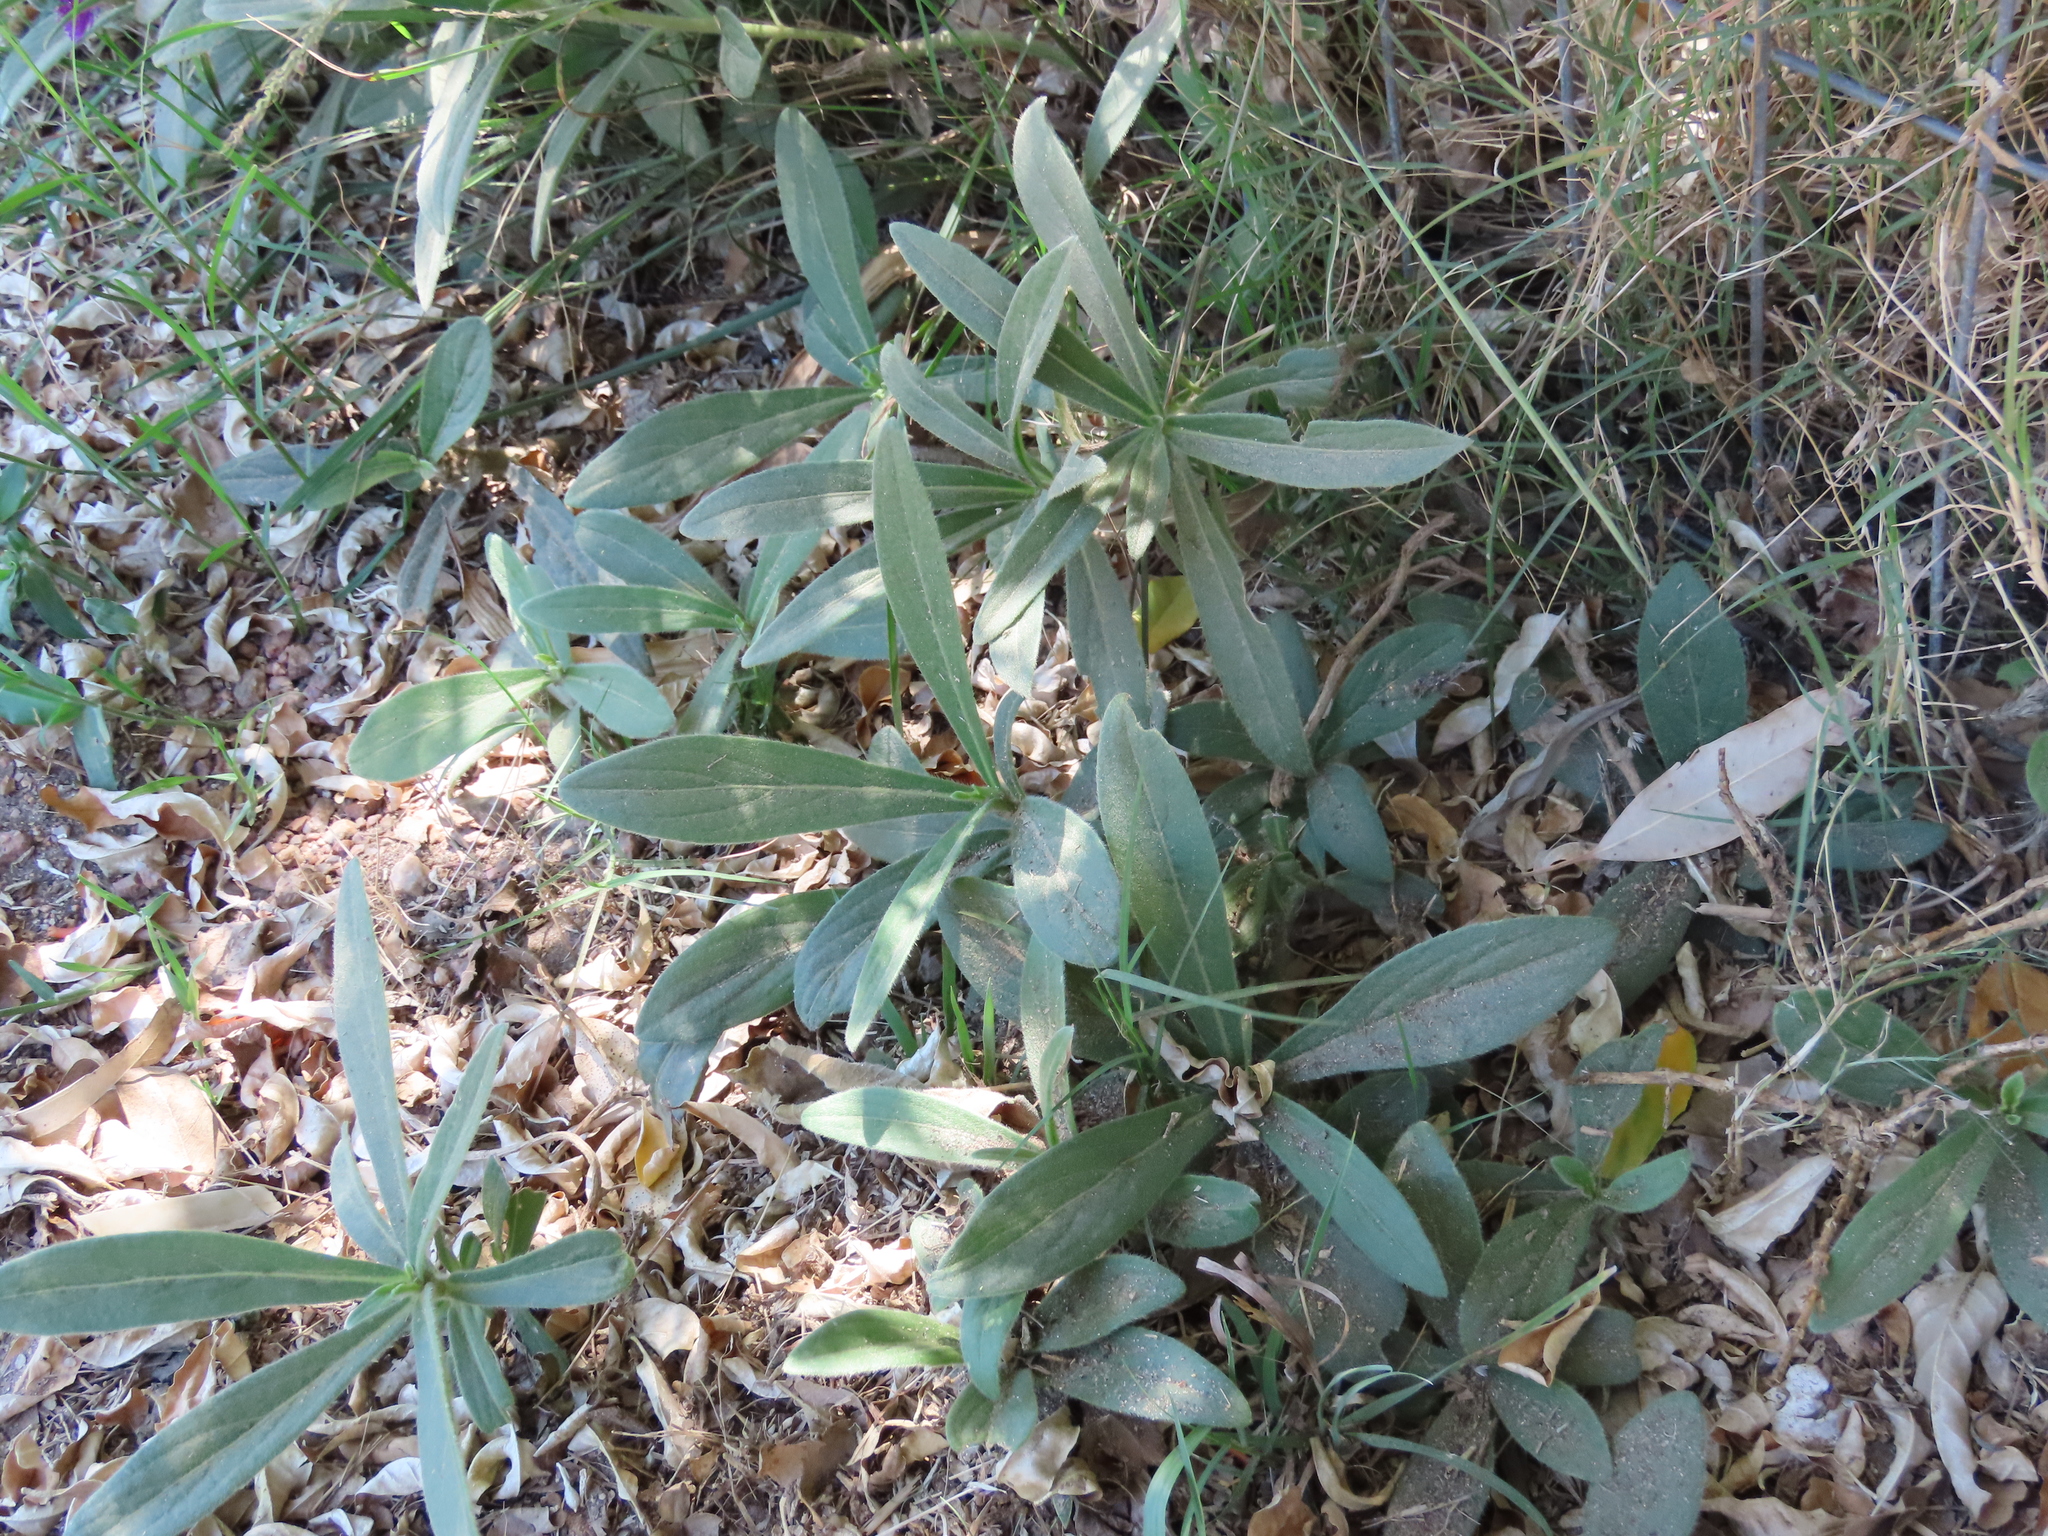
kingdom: Plantae
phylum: Tracheophyta
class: Magnoliopsida
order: Asterales
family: Asteraceae
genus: Chrysolaena
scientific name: Chrysolaena flexuosa
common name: Zig-zag vernonia
